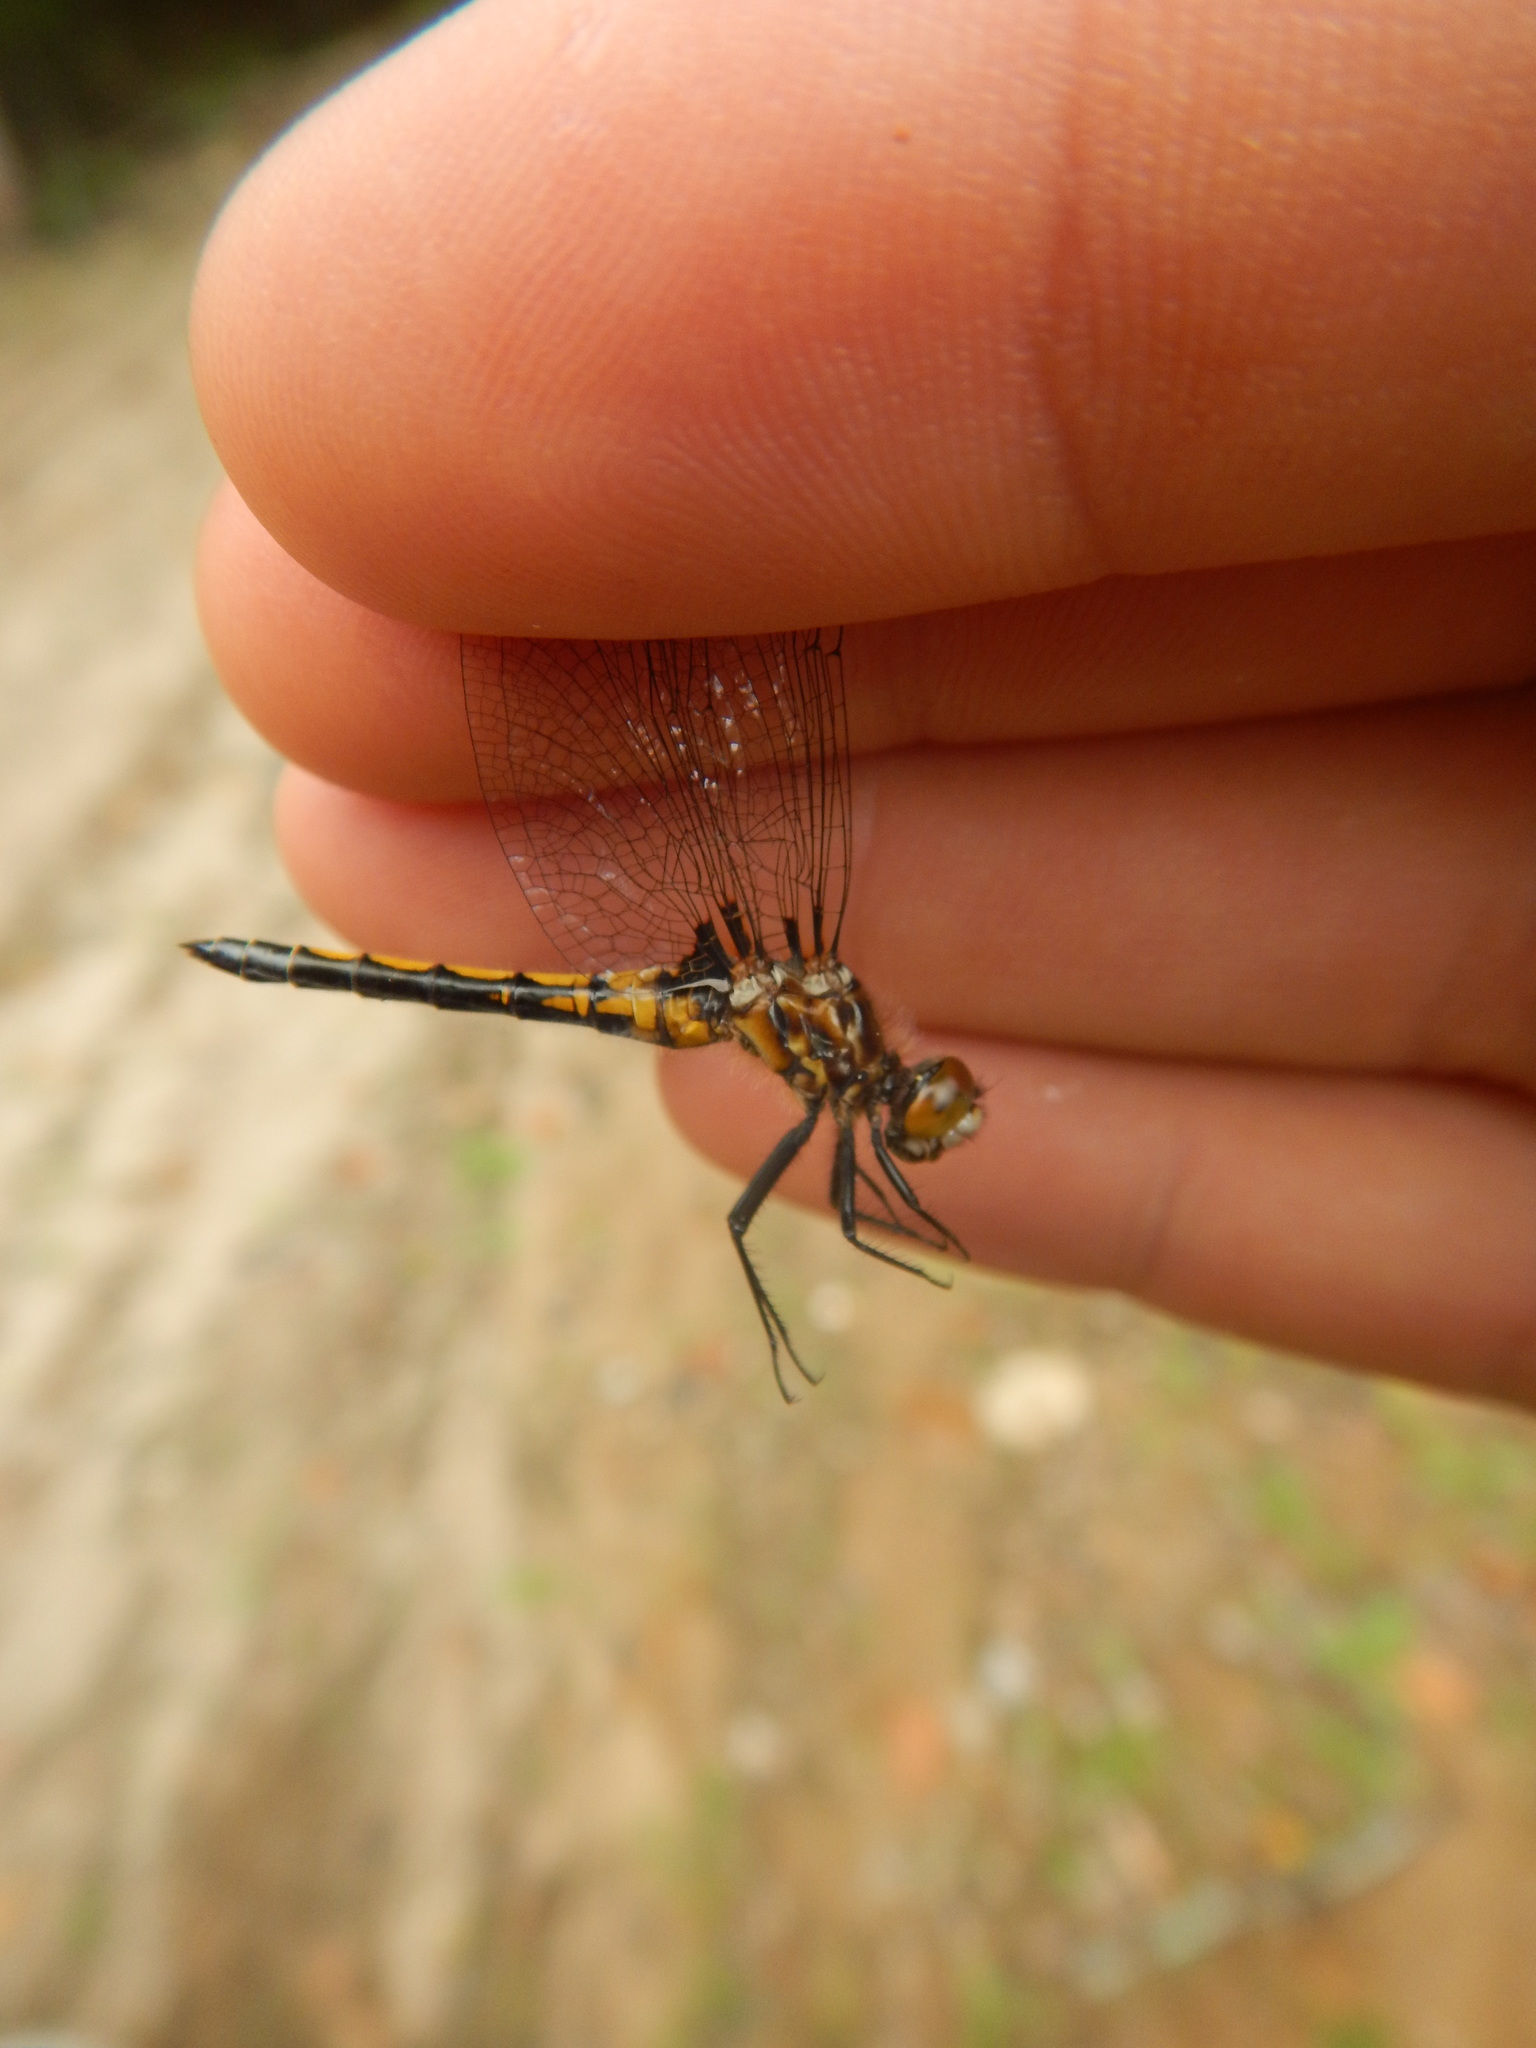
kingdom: Animalia
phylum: Arthropoda
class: Insecta
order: Odonata
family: Libellulidae
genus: Leucorrhinia
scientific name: Leucorrhinia hudsonica
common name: Hudsonian whiteface
